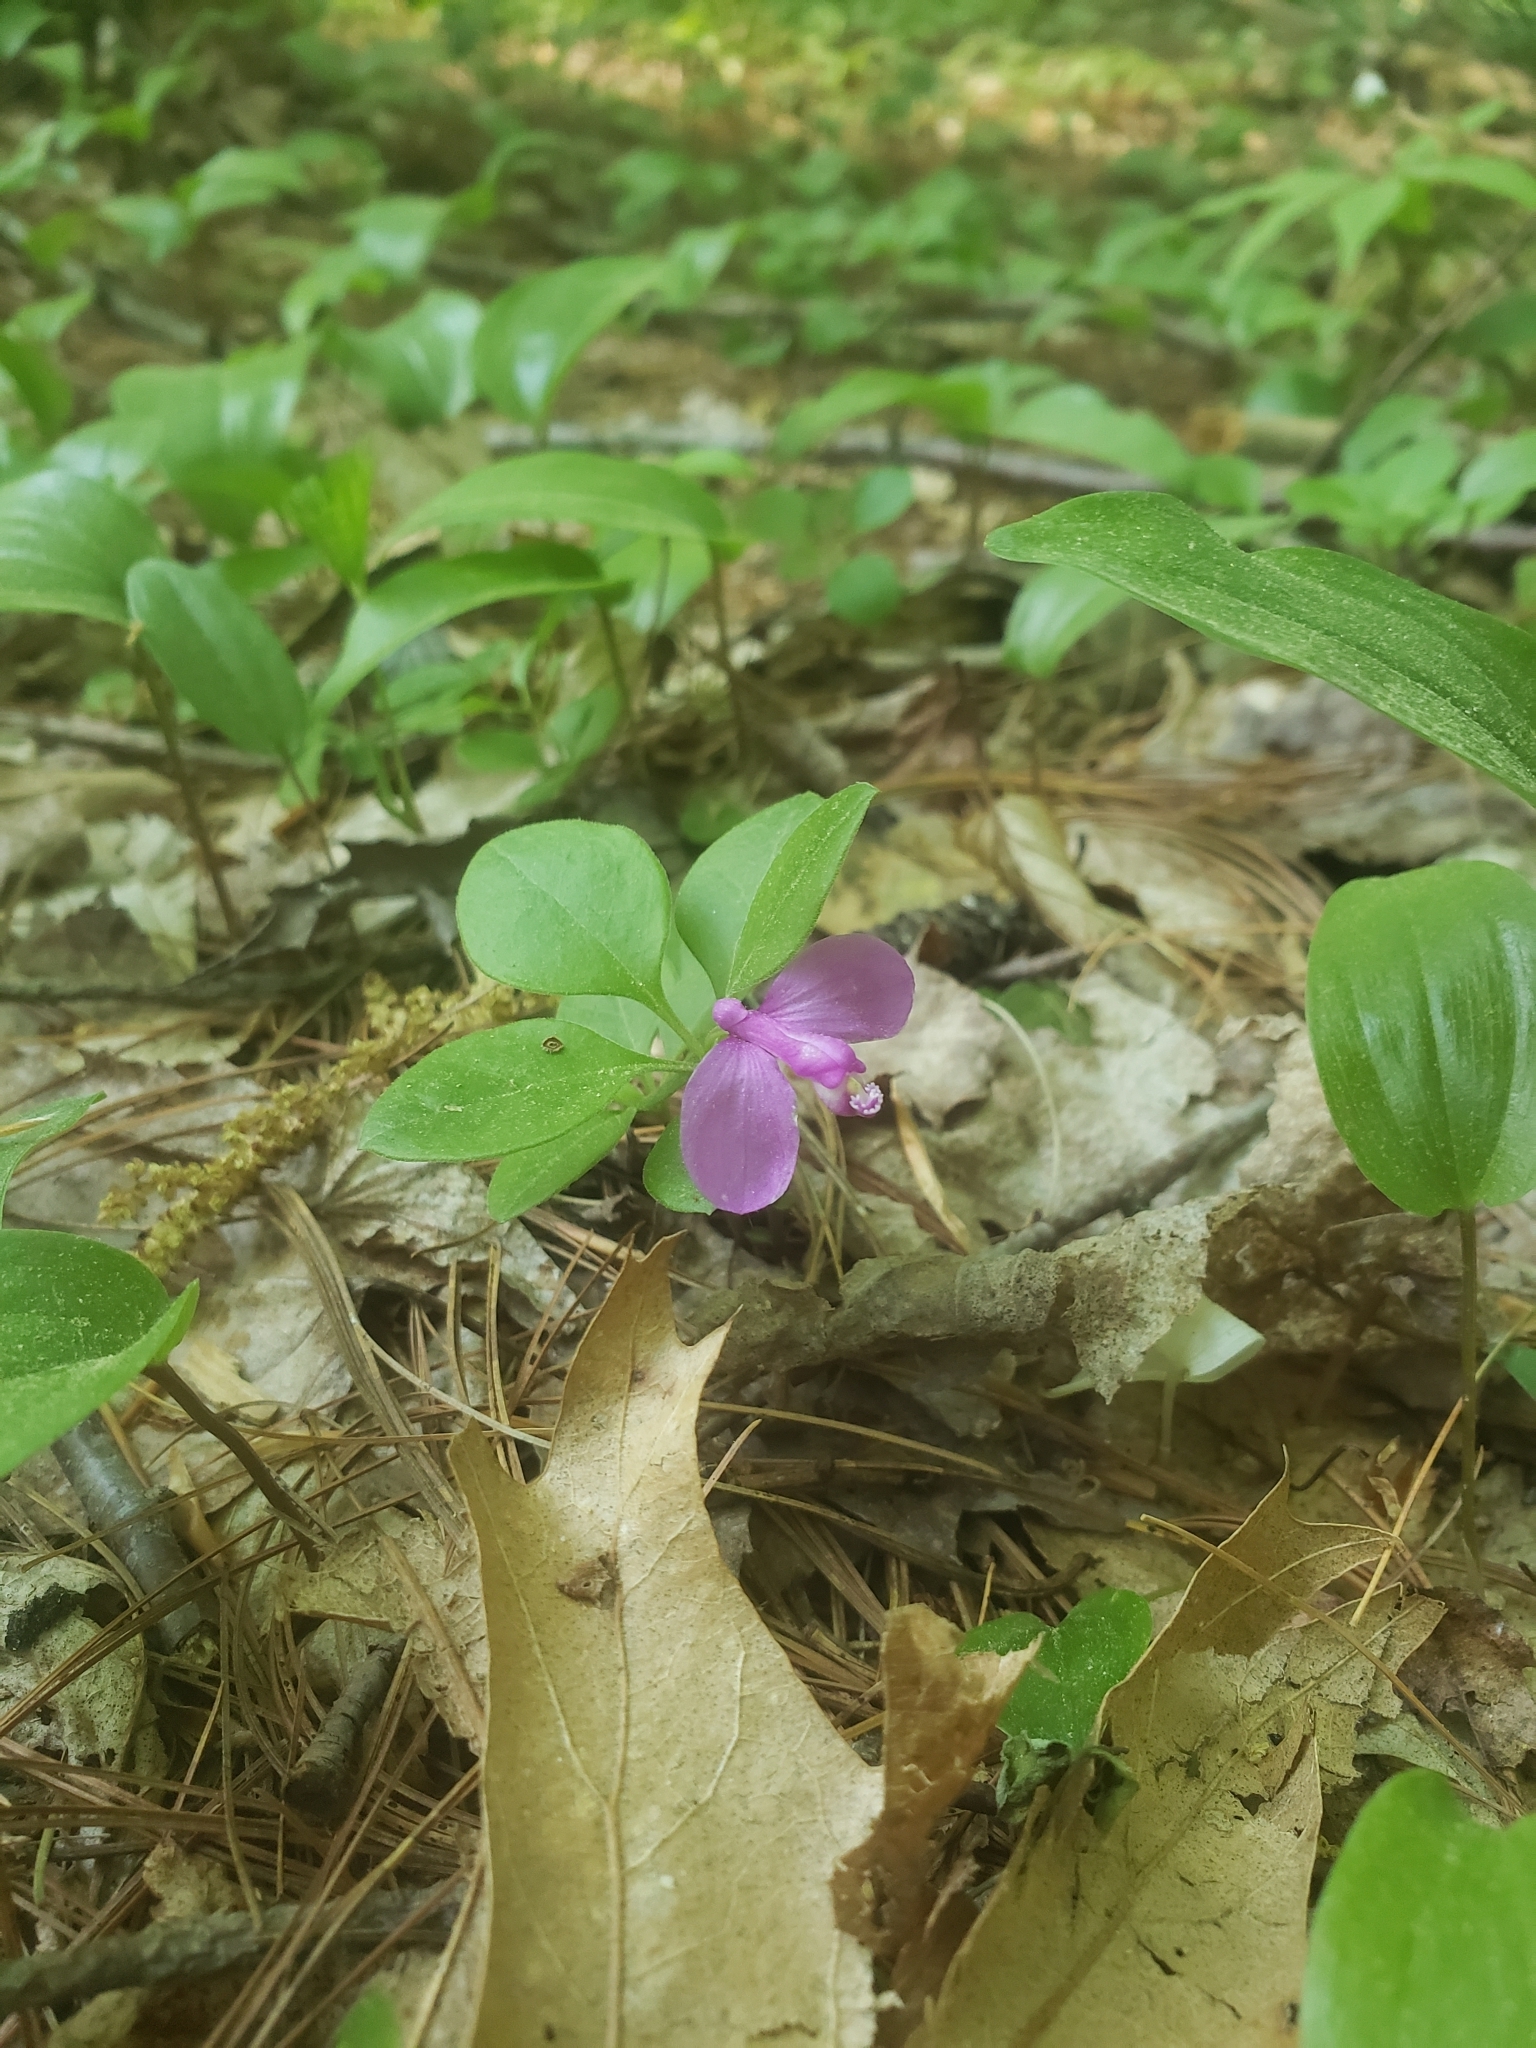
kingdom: Plantae
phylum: Tracheophyta
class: Magnoliopsida
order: Fabales
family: Polygalaceae
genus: Polygaloides
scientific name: Polygaloides paucifolia
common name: Bird-on-the-wing
